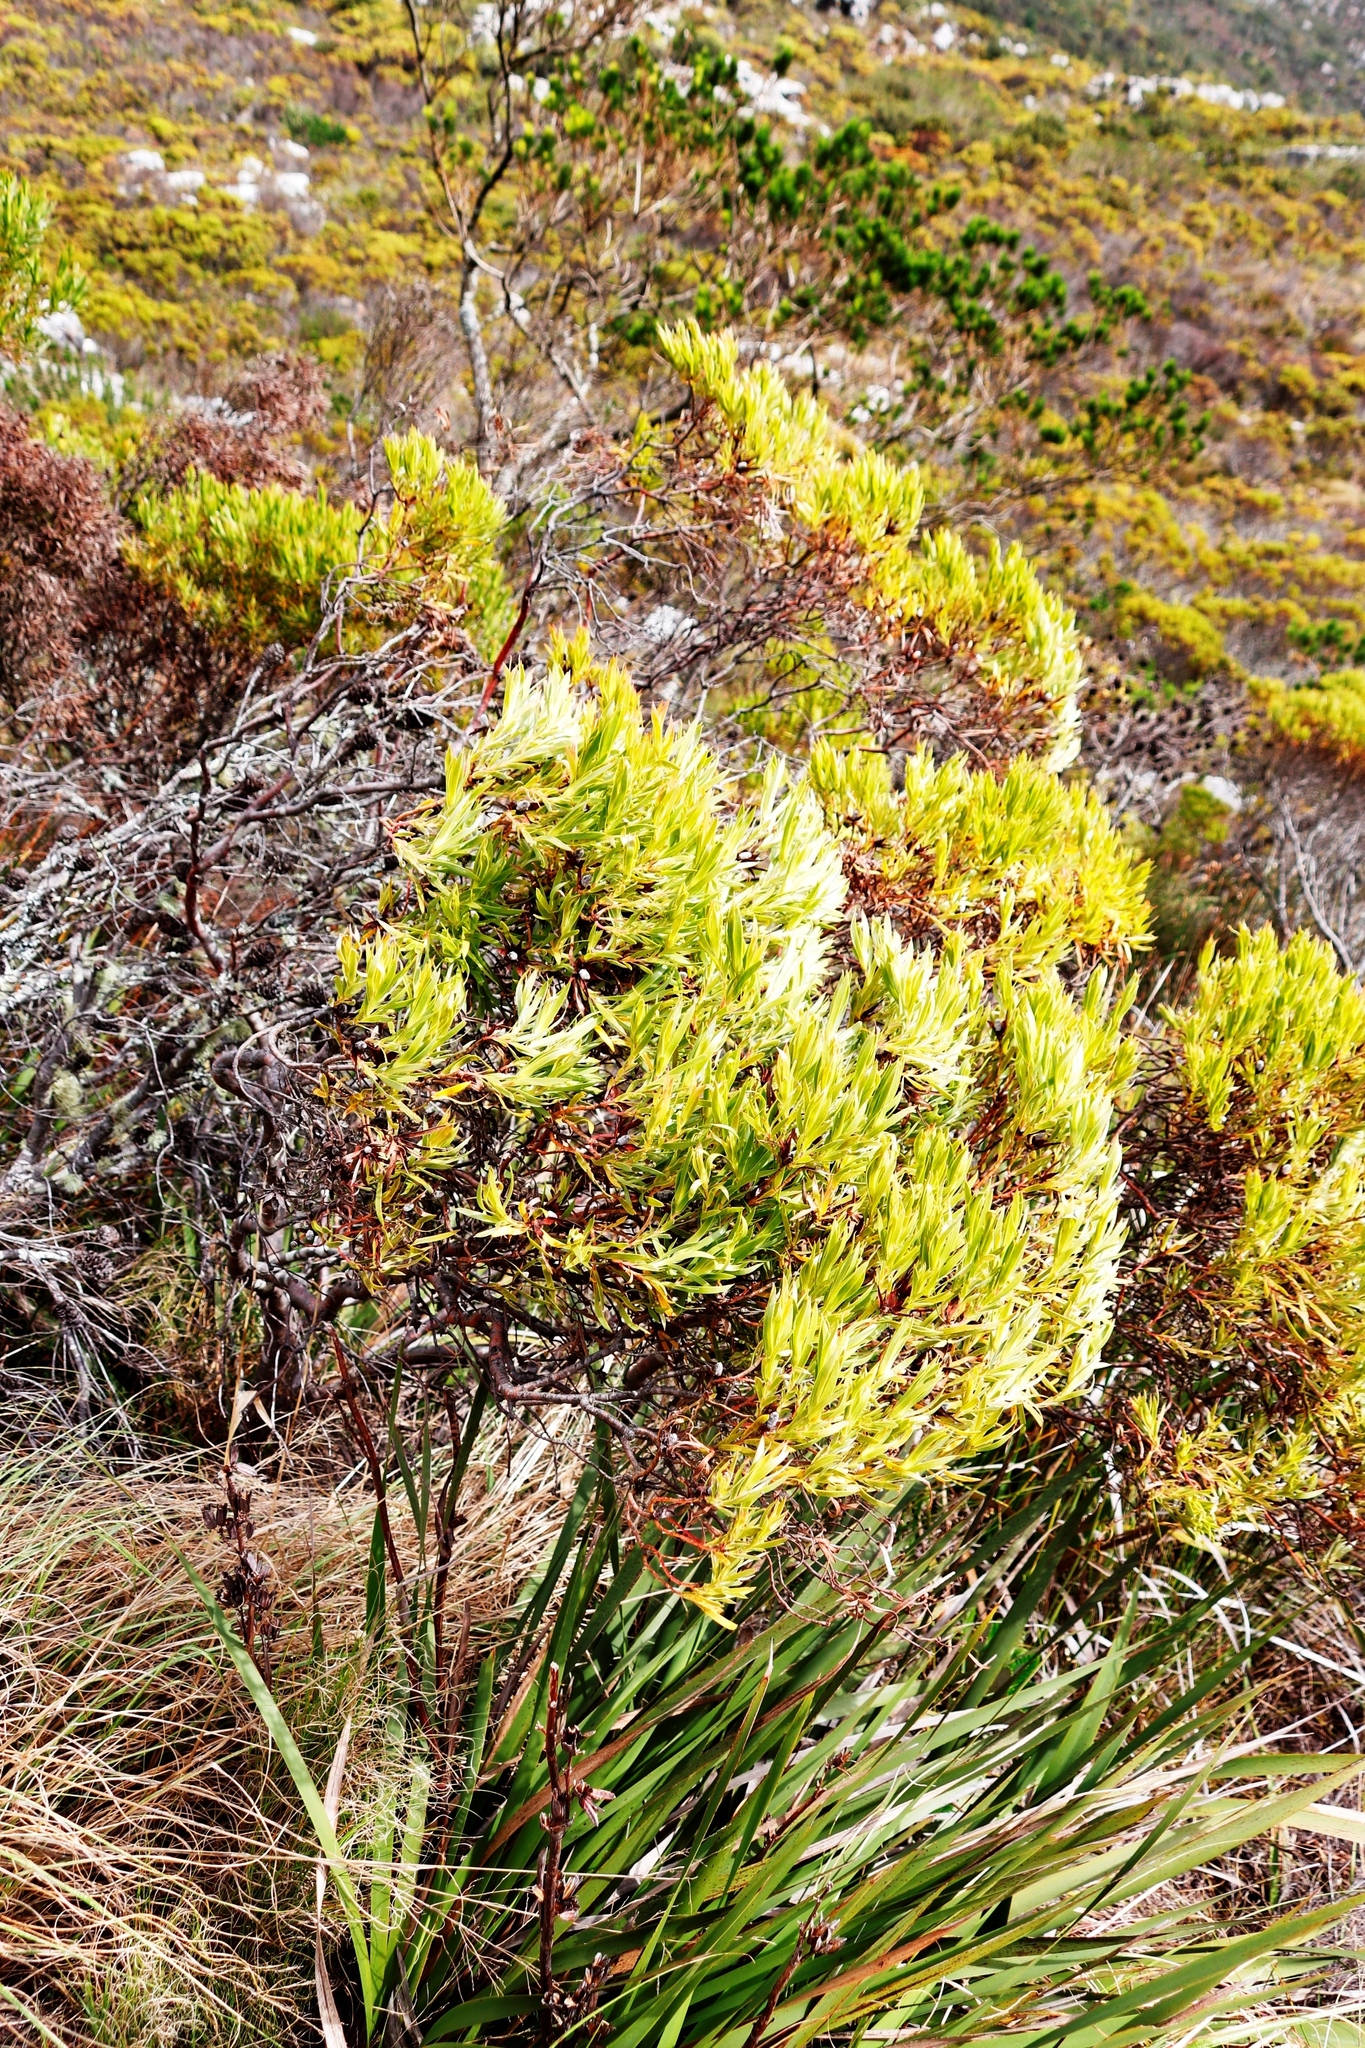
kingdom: Plantae
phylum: Tracheophyta
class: Magnoliopsida
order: Proteales
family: Proteaceae
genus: Leucadendron
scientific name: Leucadendron xanthoconus
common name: Sickle-leaf conebush
